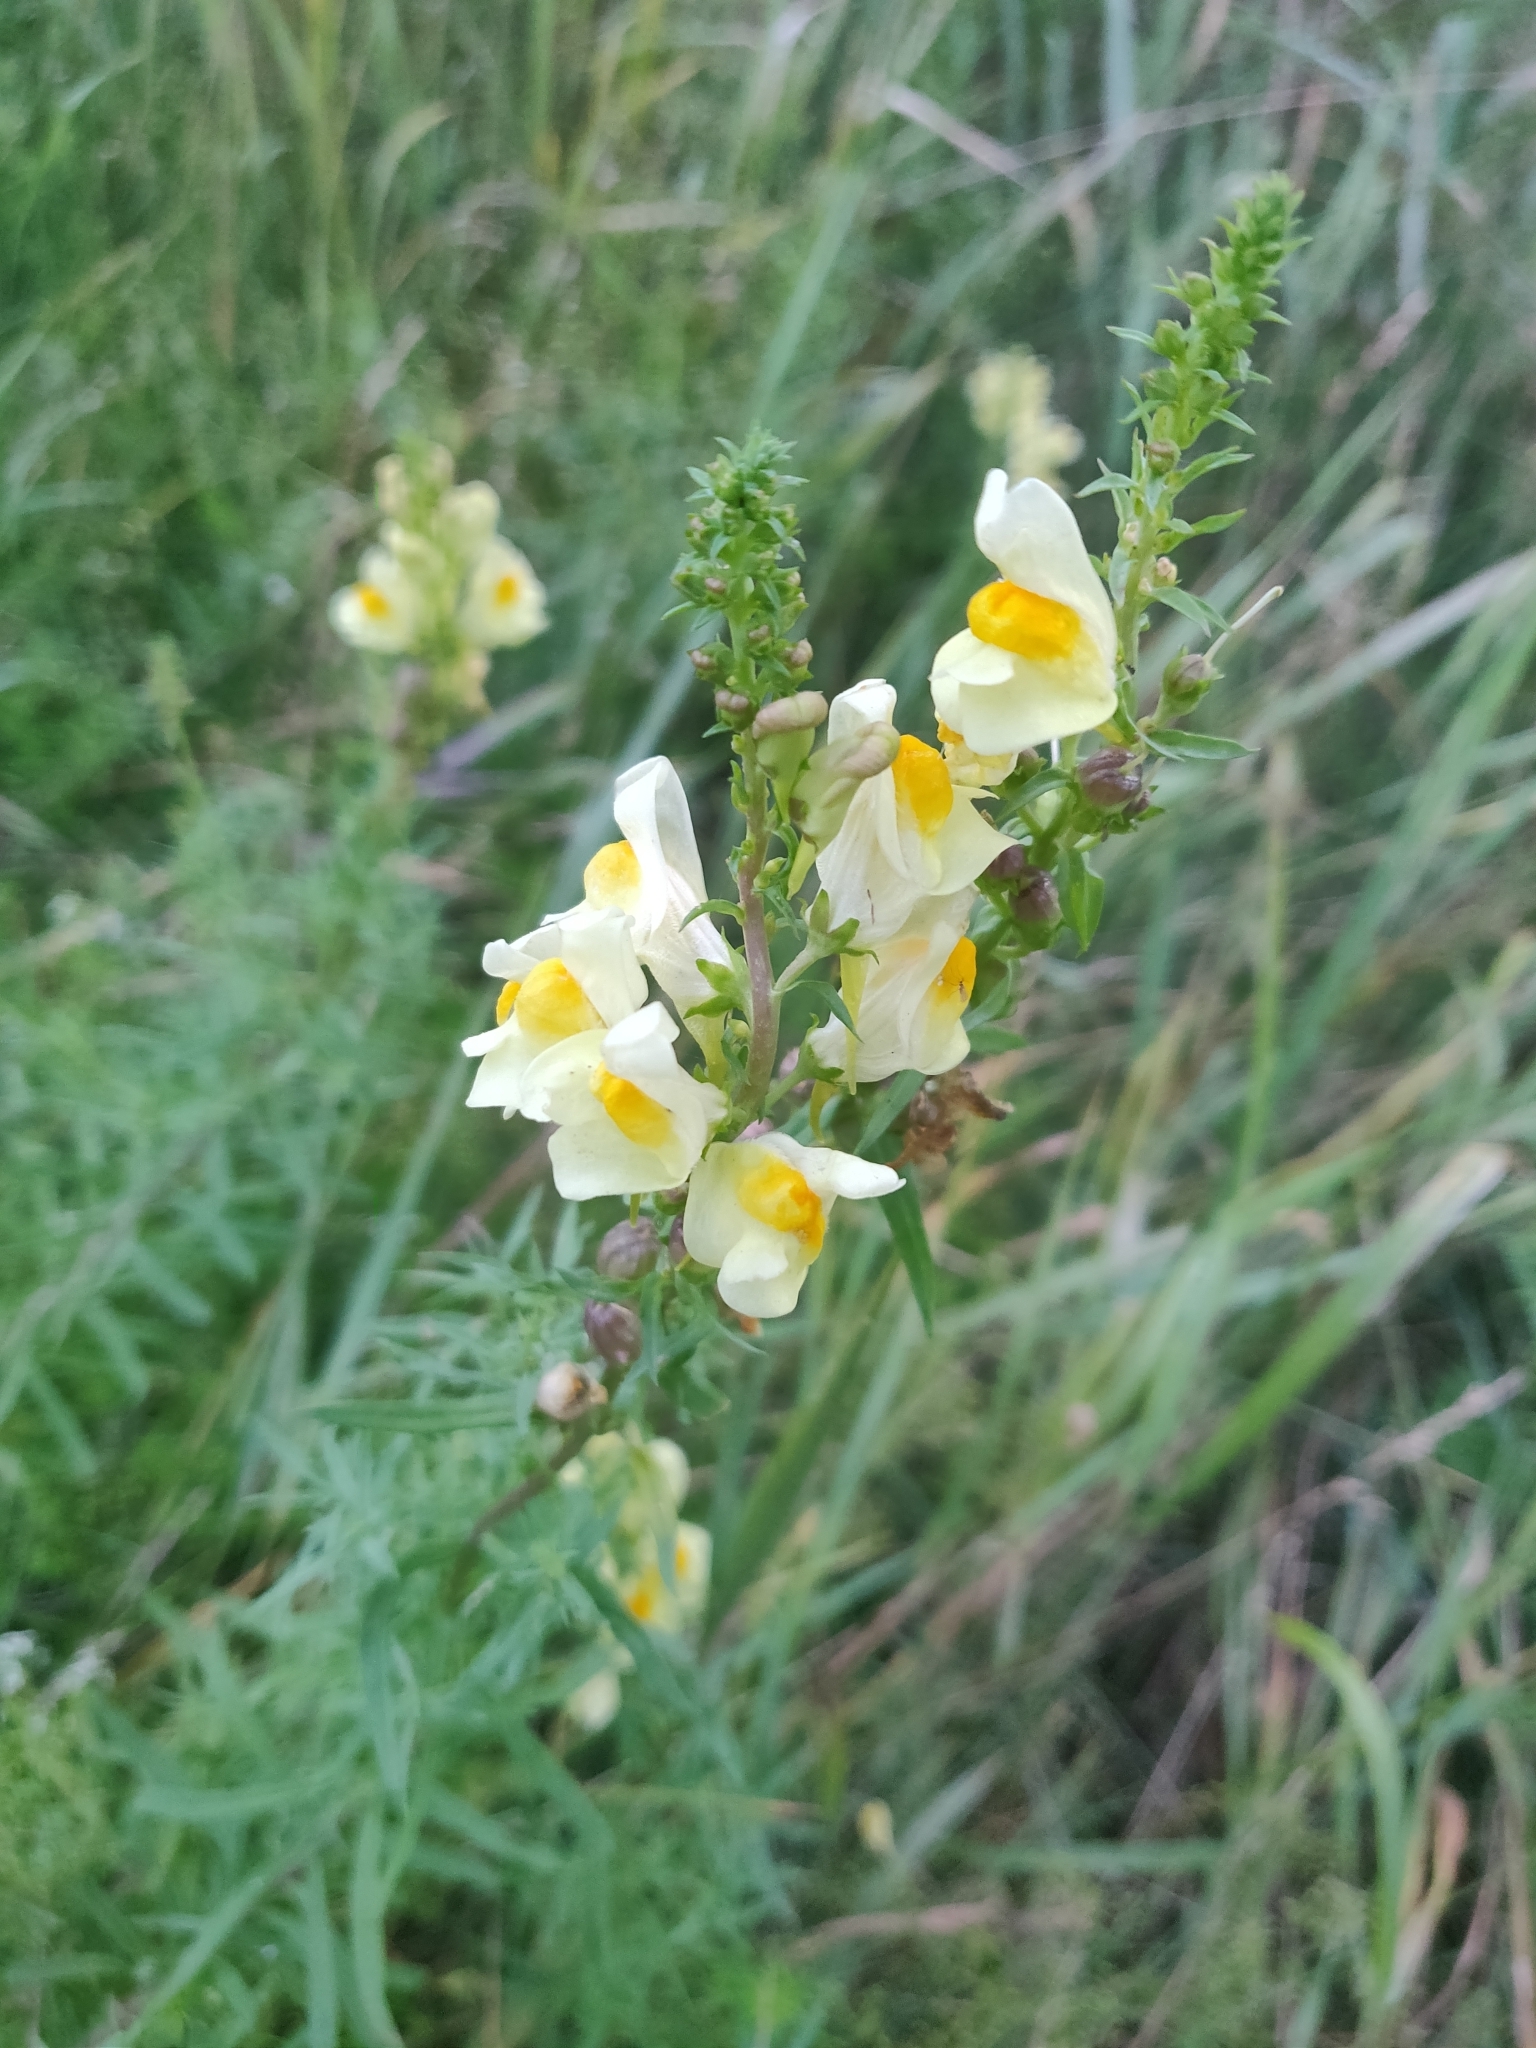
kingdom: Plantae
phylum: Tracheophyta
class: Magnoliopsida
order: Lamiales
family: Plantaginaceae
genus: Linaria
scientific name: Linaria vulgaris
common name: Butter and eggs
